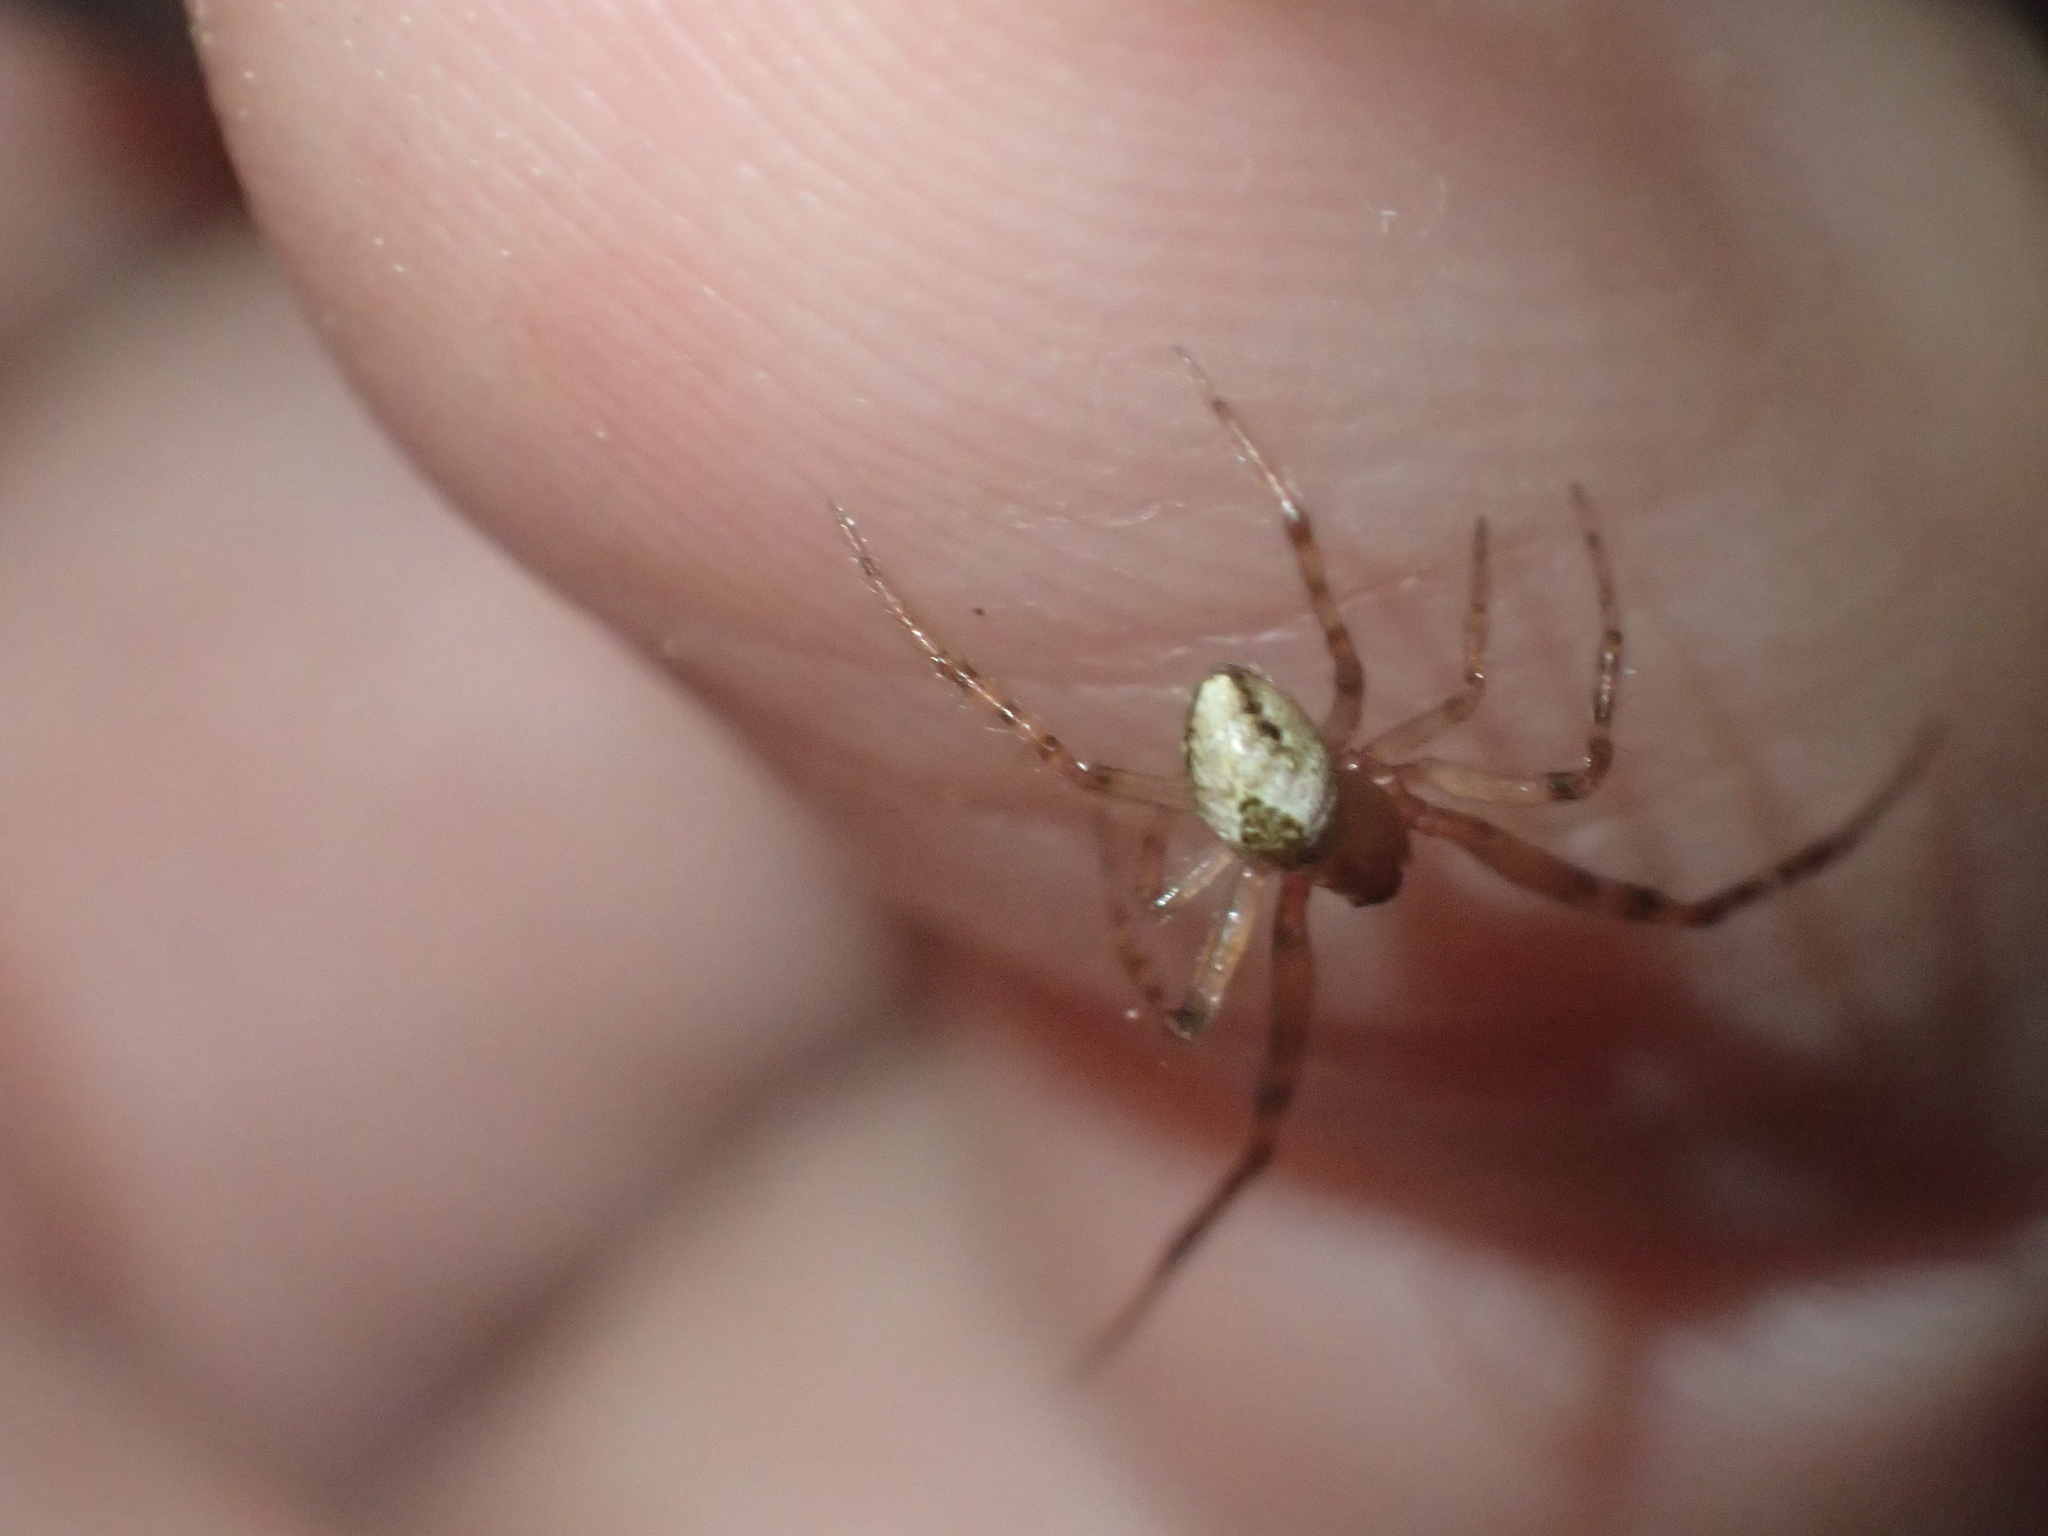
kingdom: Animalia
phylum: Arthropoda
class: Arachnida
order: Araneae
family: Theridiidae
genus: Cryptachaea
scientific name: Cryptachaea veruculata
